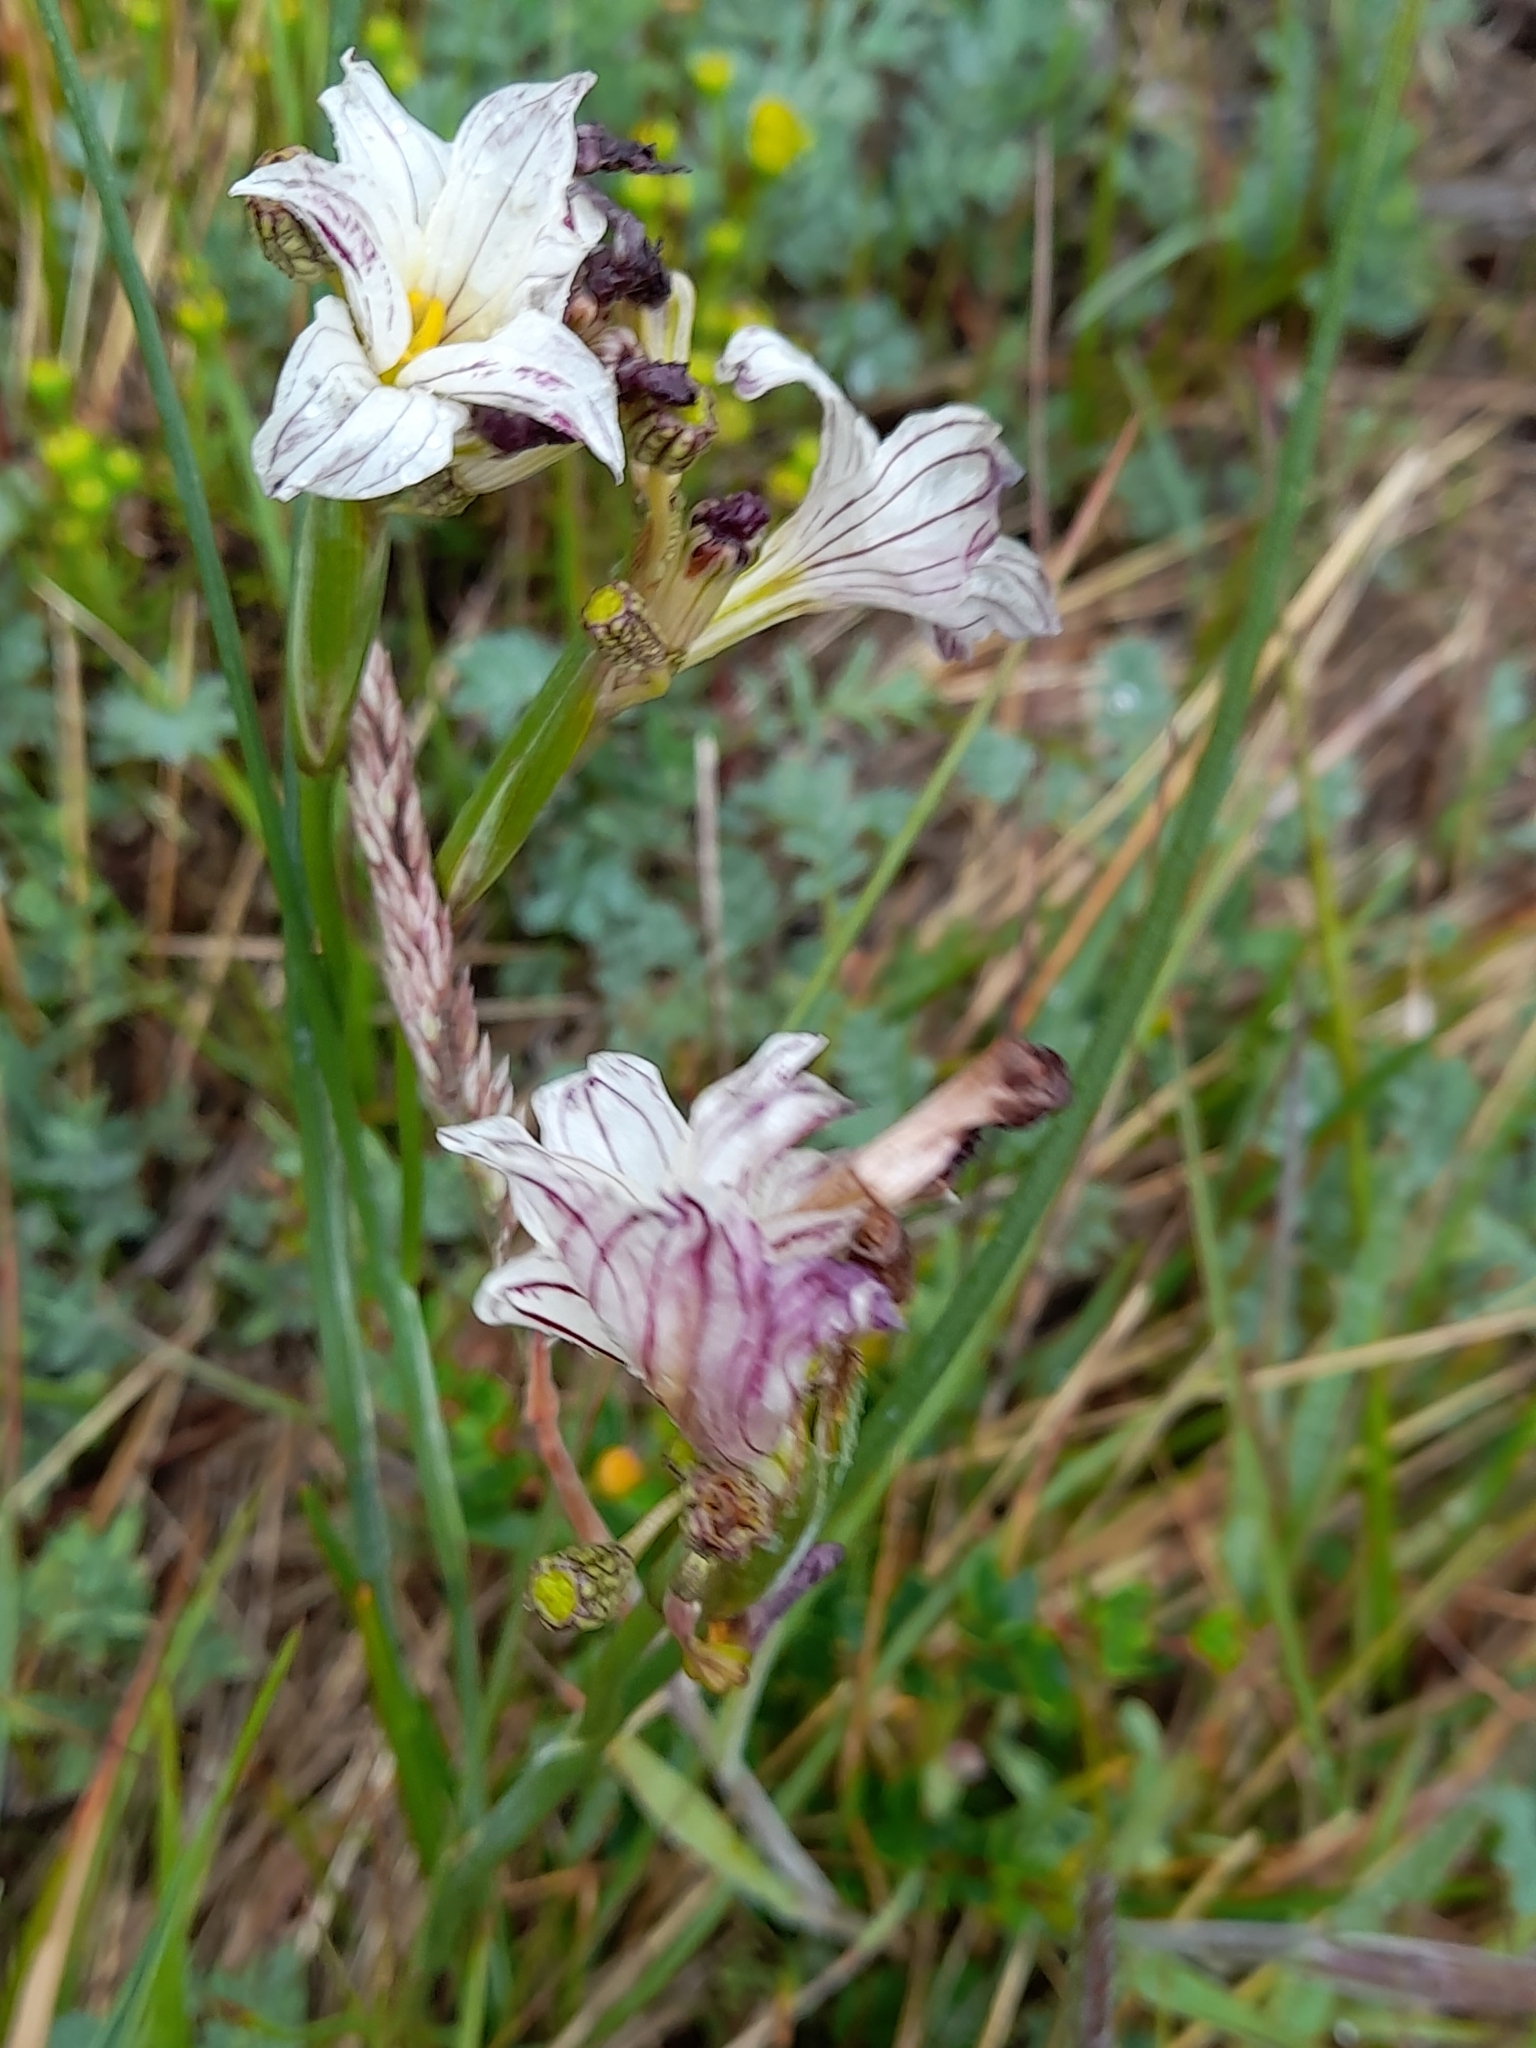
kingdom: Plantae
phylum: Tracheophyta
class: Liliopsida
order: Asparagales
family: Iridaceae
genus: Olsynium
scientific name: Olsynium biflorum
